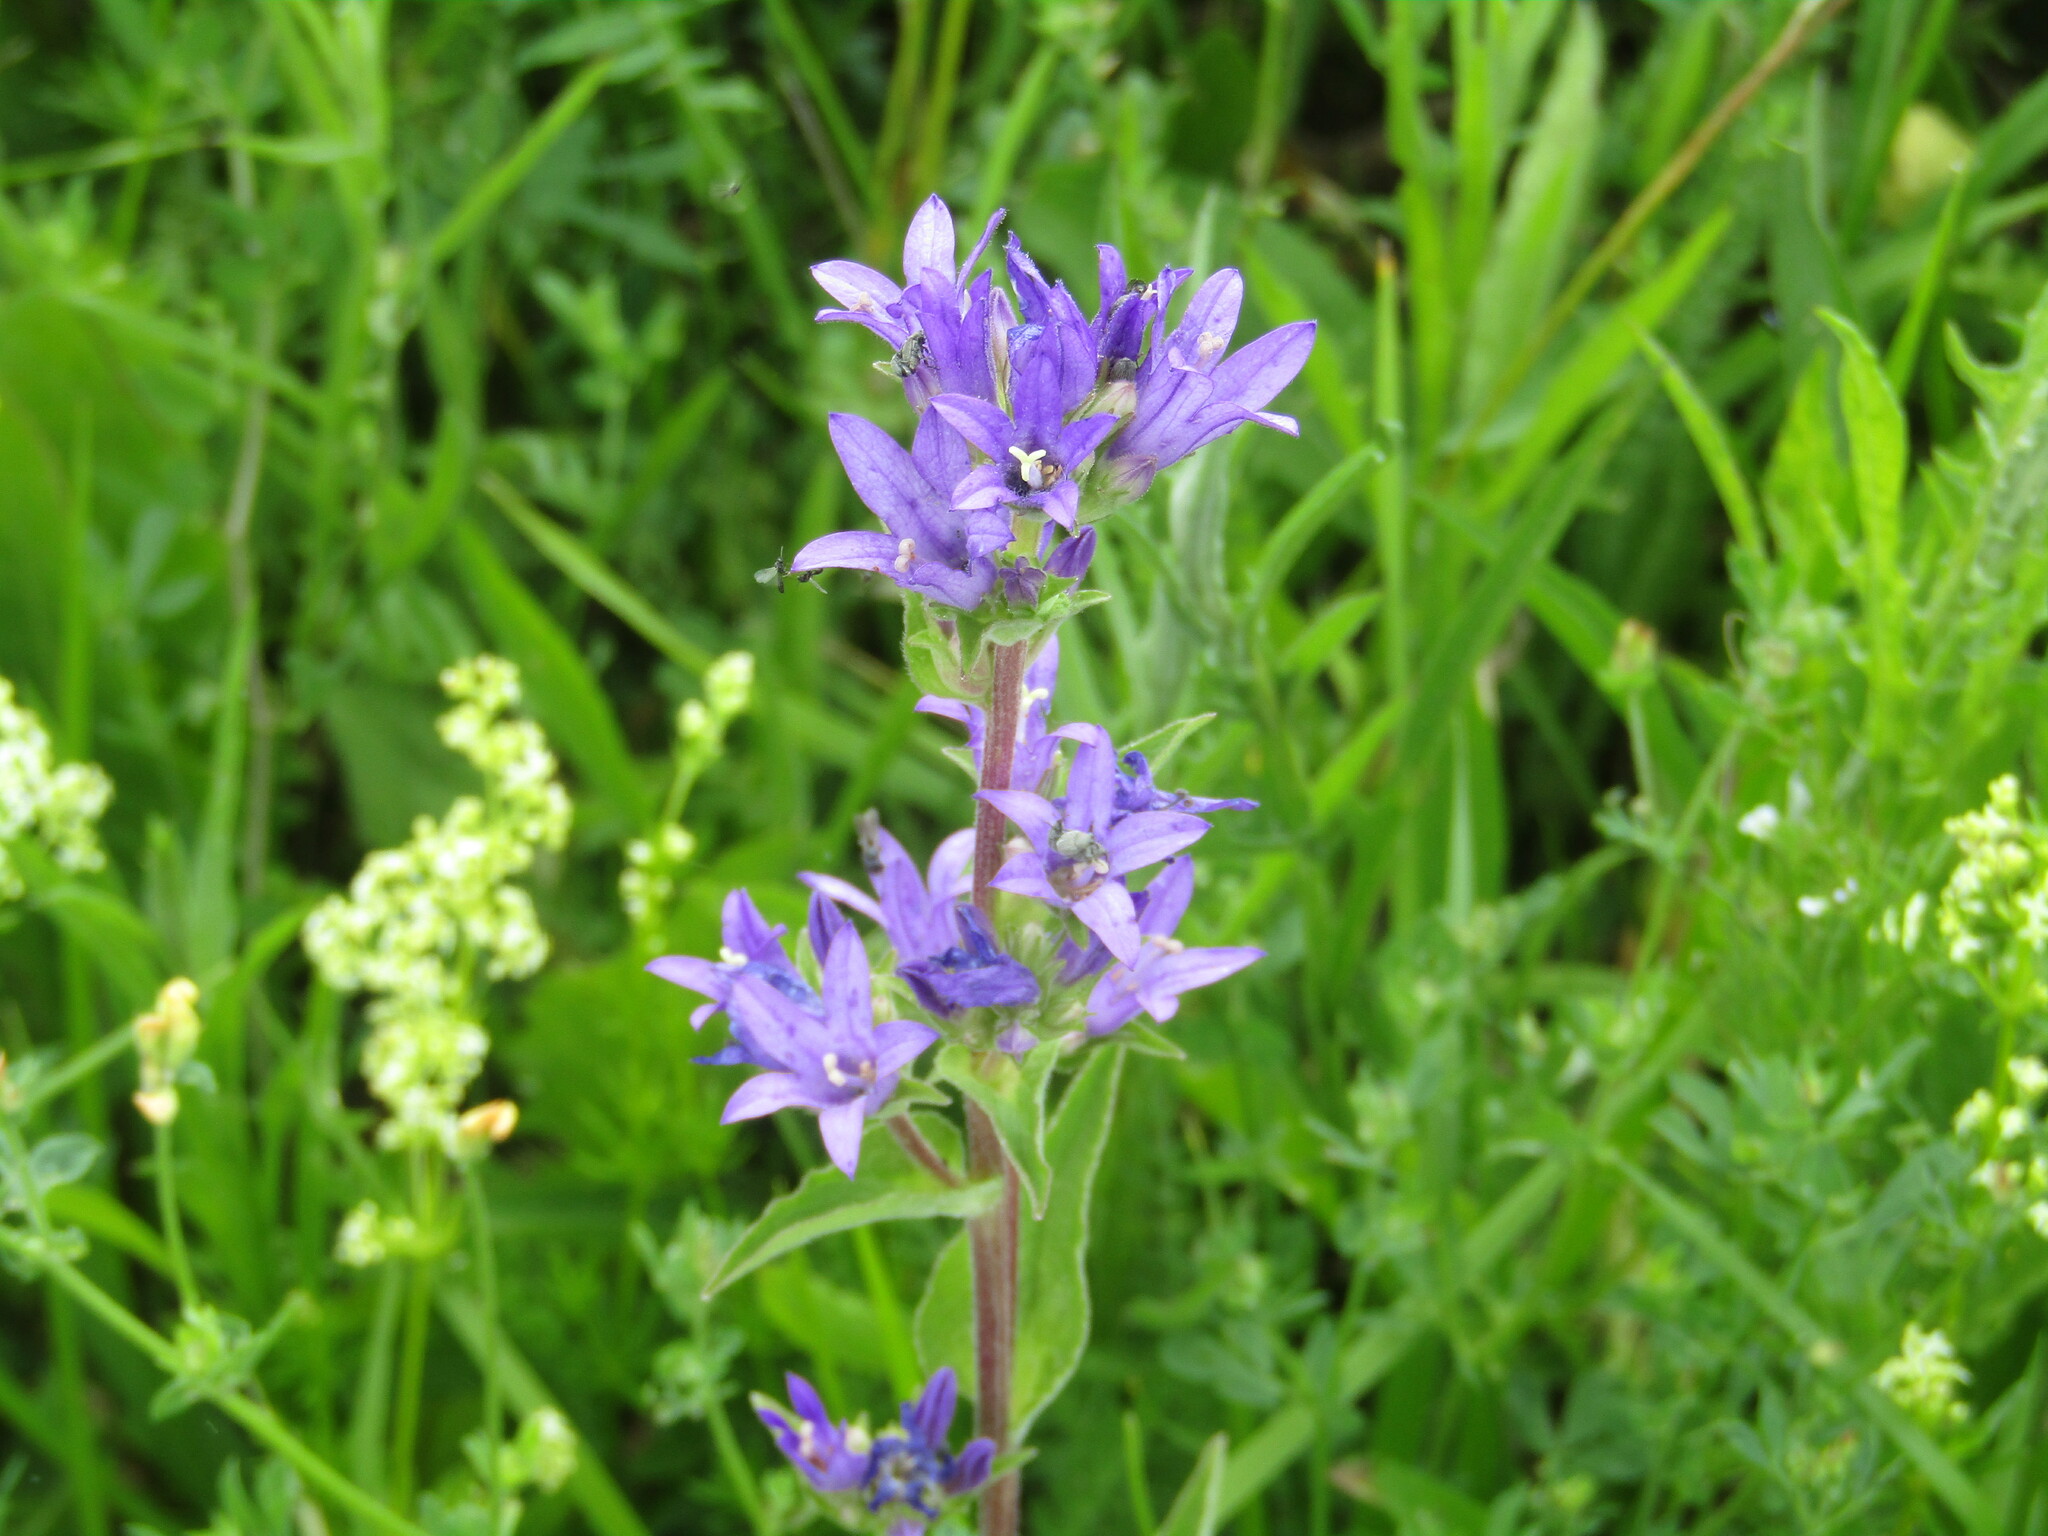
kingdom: Plantae
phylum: Tracheophyta
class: Magnoliopsida
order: Asterales
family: Campanulaceae
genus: Campanula
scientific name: Campanula glomerata
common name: Clustered bellflower
